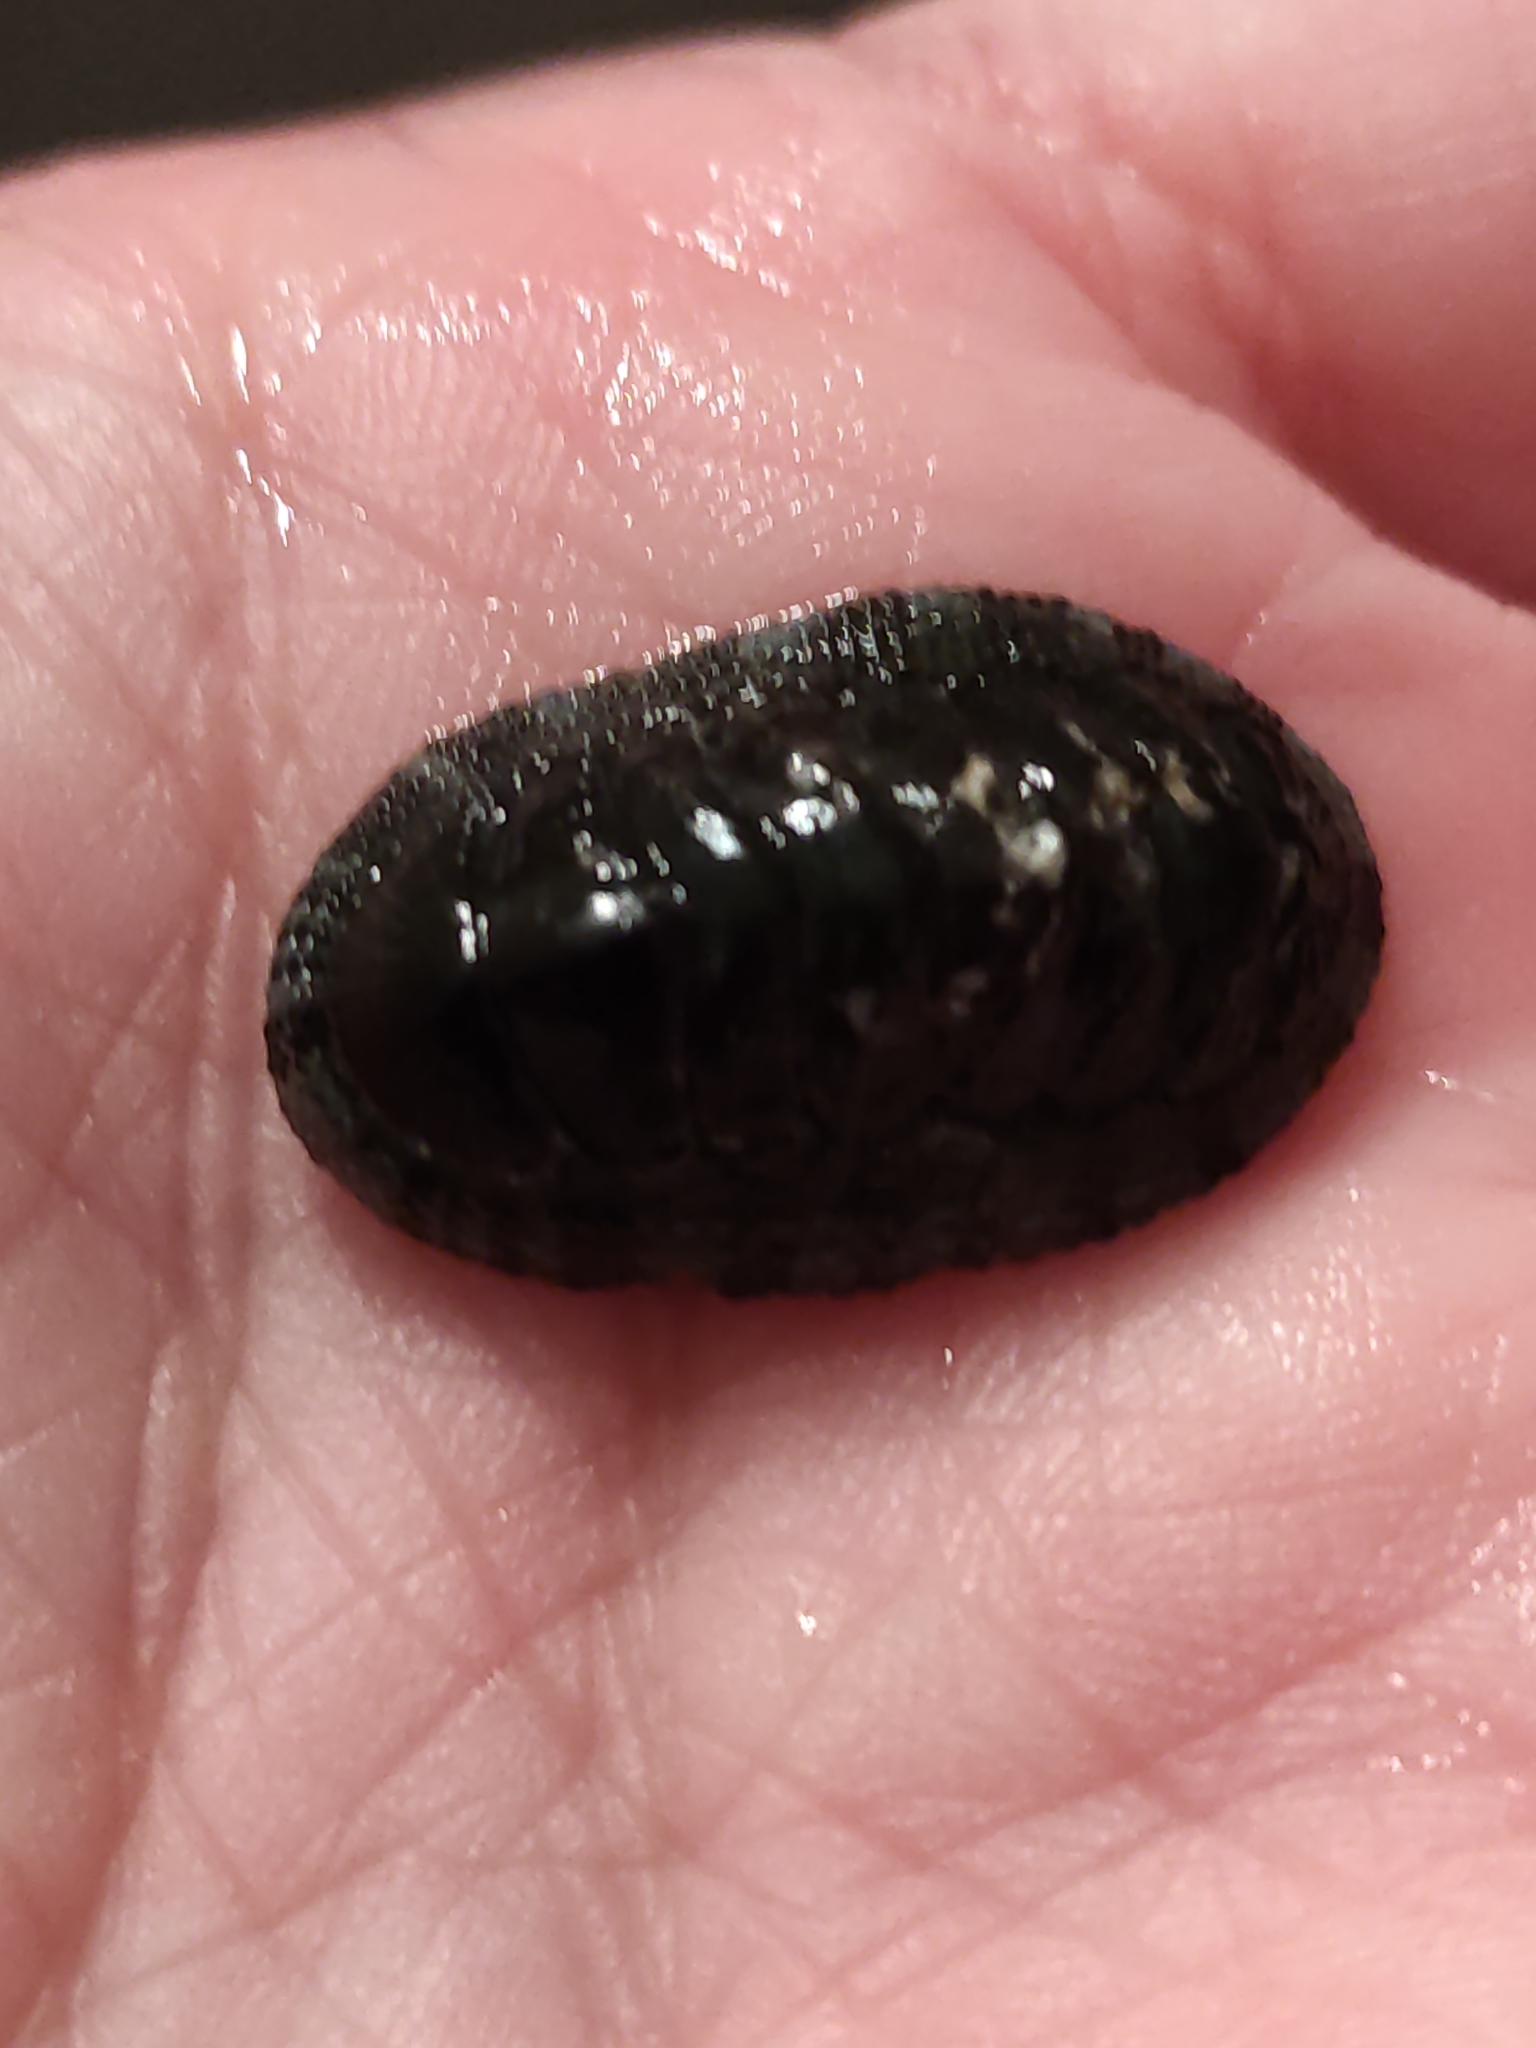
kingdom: Animalia
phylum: Mollusca
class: Polyplacophora
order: Chitonida
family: Chitonidae
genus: Sypharochiton
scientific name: Sypharochiton pelliserpentis
